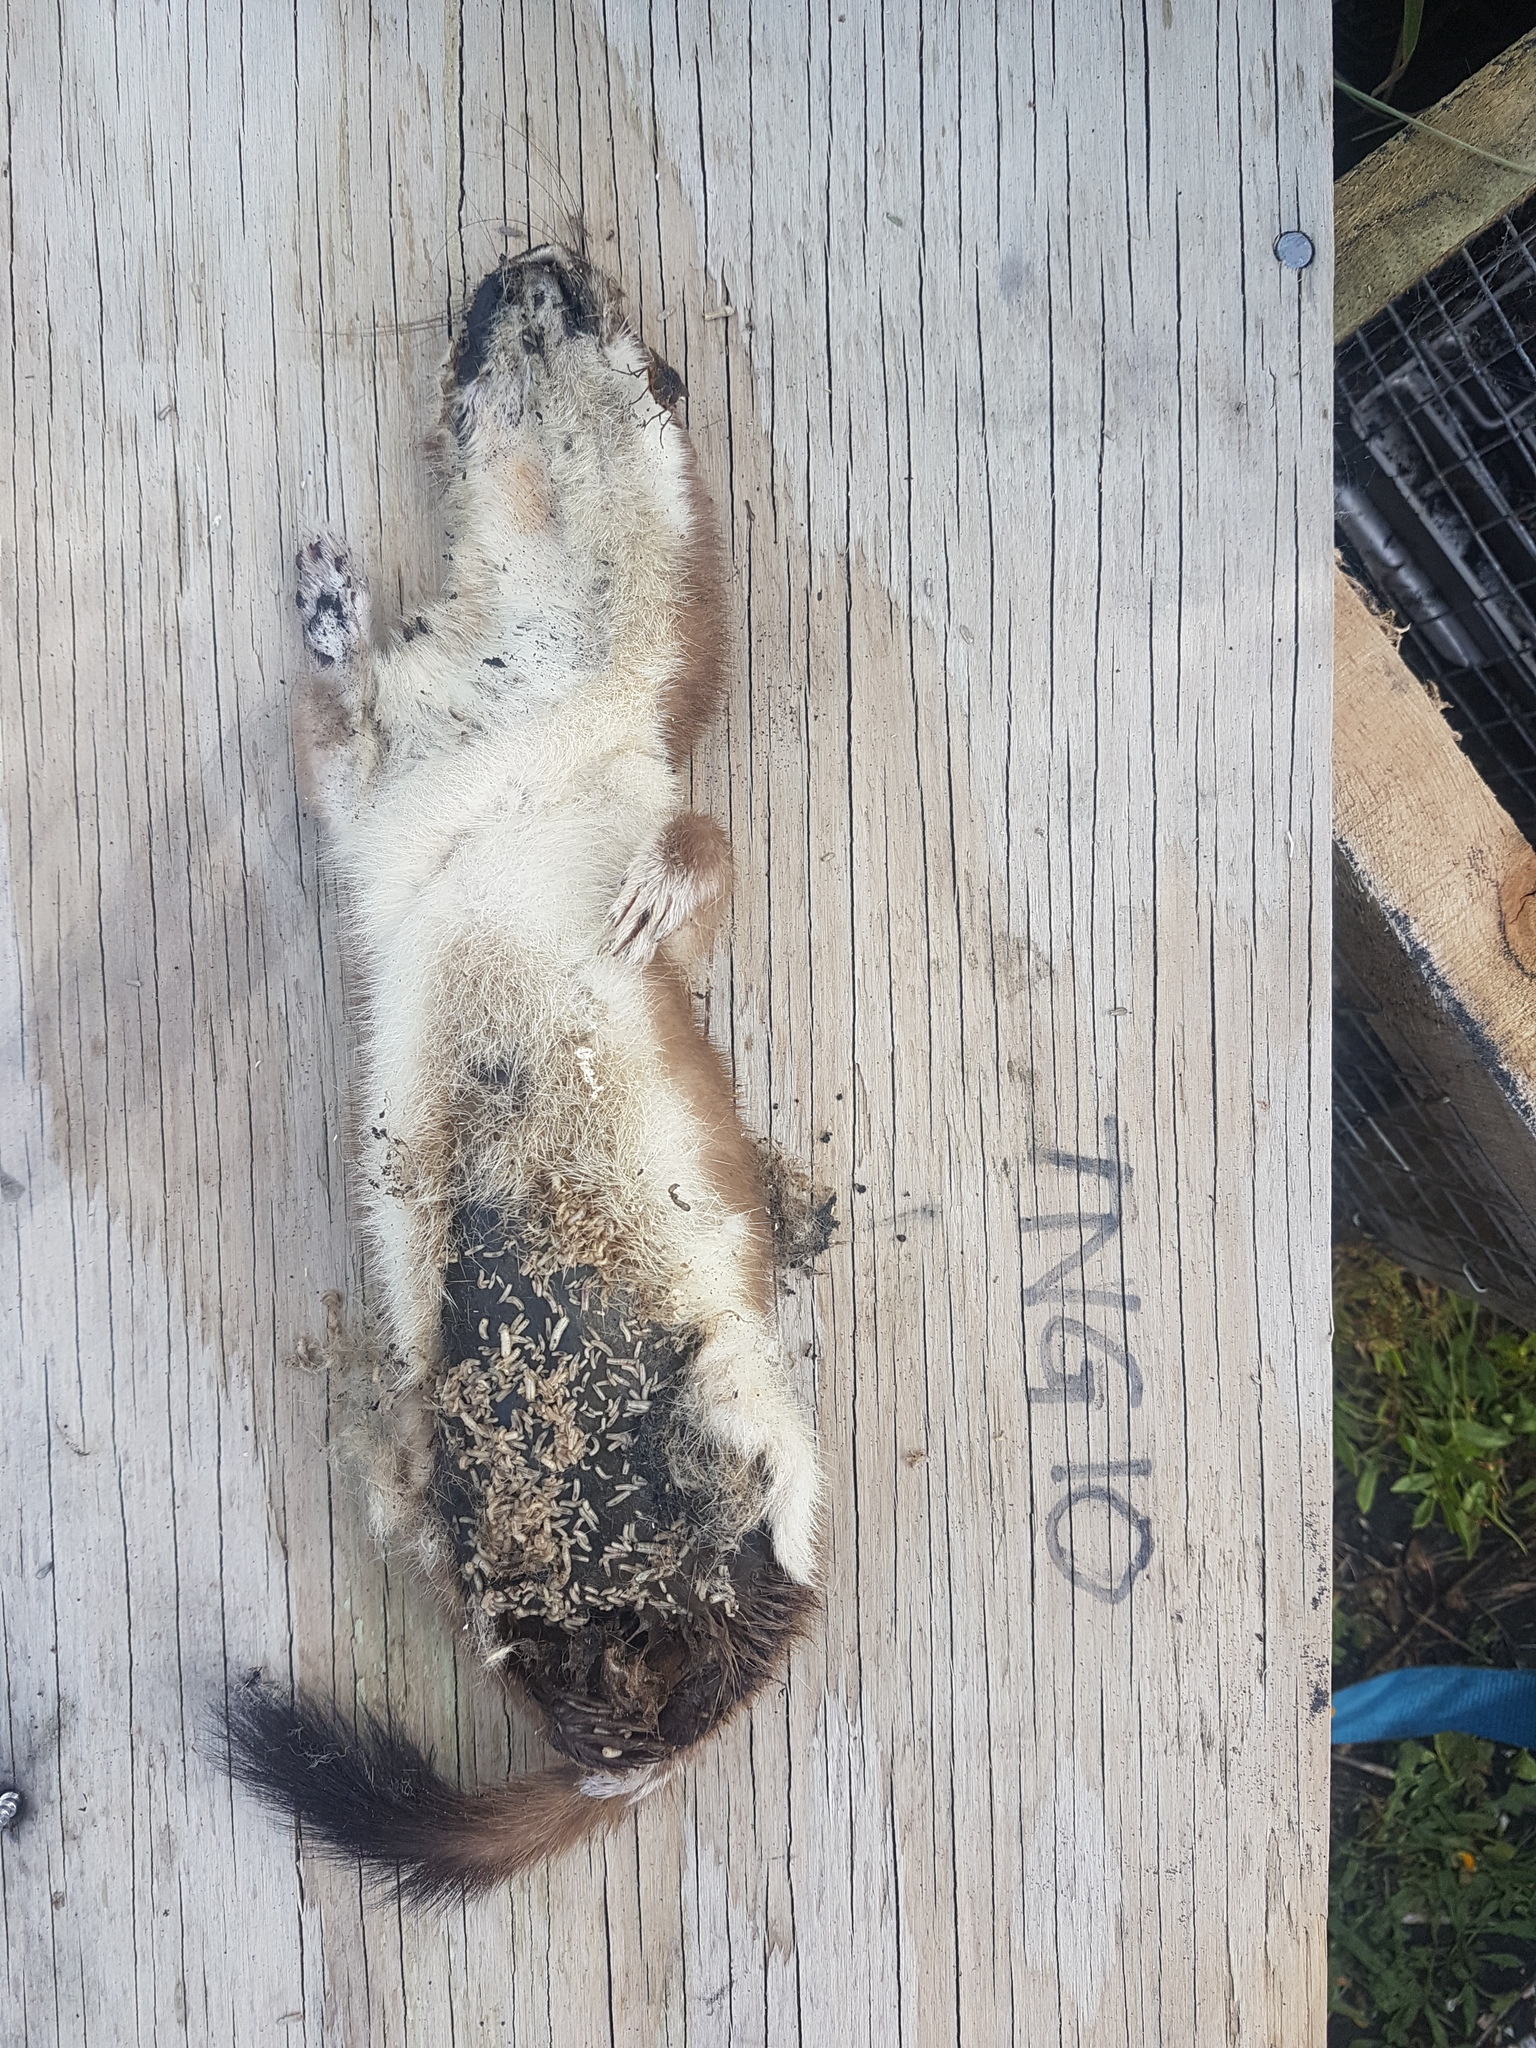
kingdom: Animalia
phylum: Chordata
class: Mammalia
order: Carnivora
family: Mustelidae
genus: Mustela
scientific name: Mustela erminea
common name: Stoat
